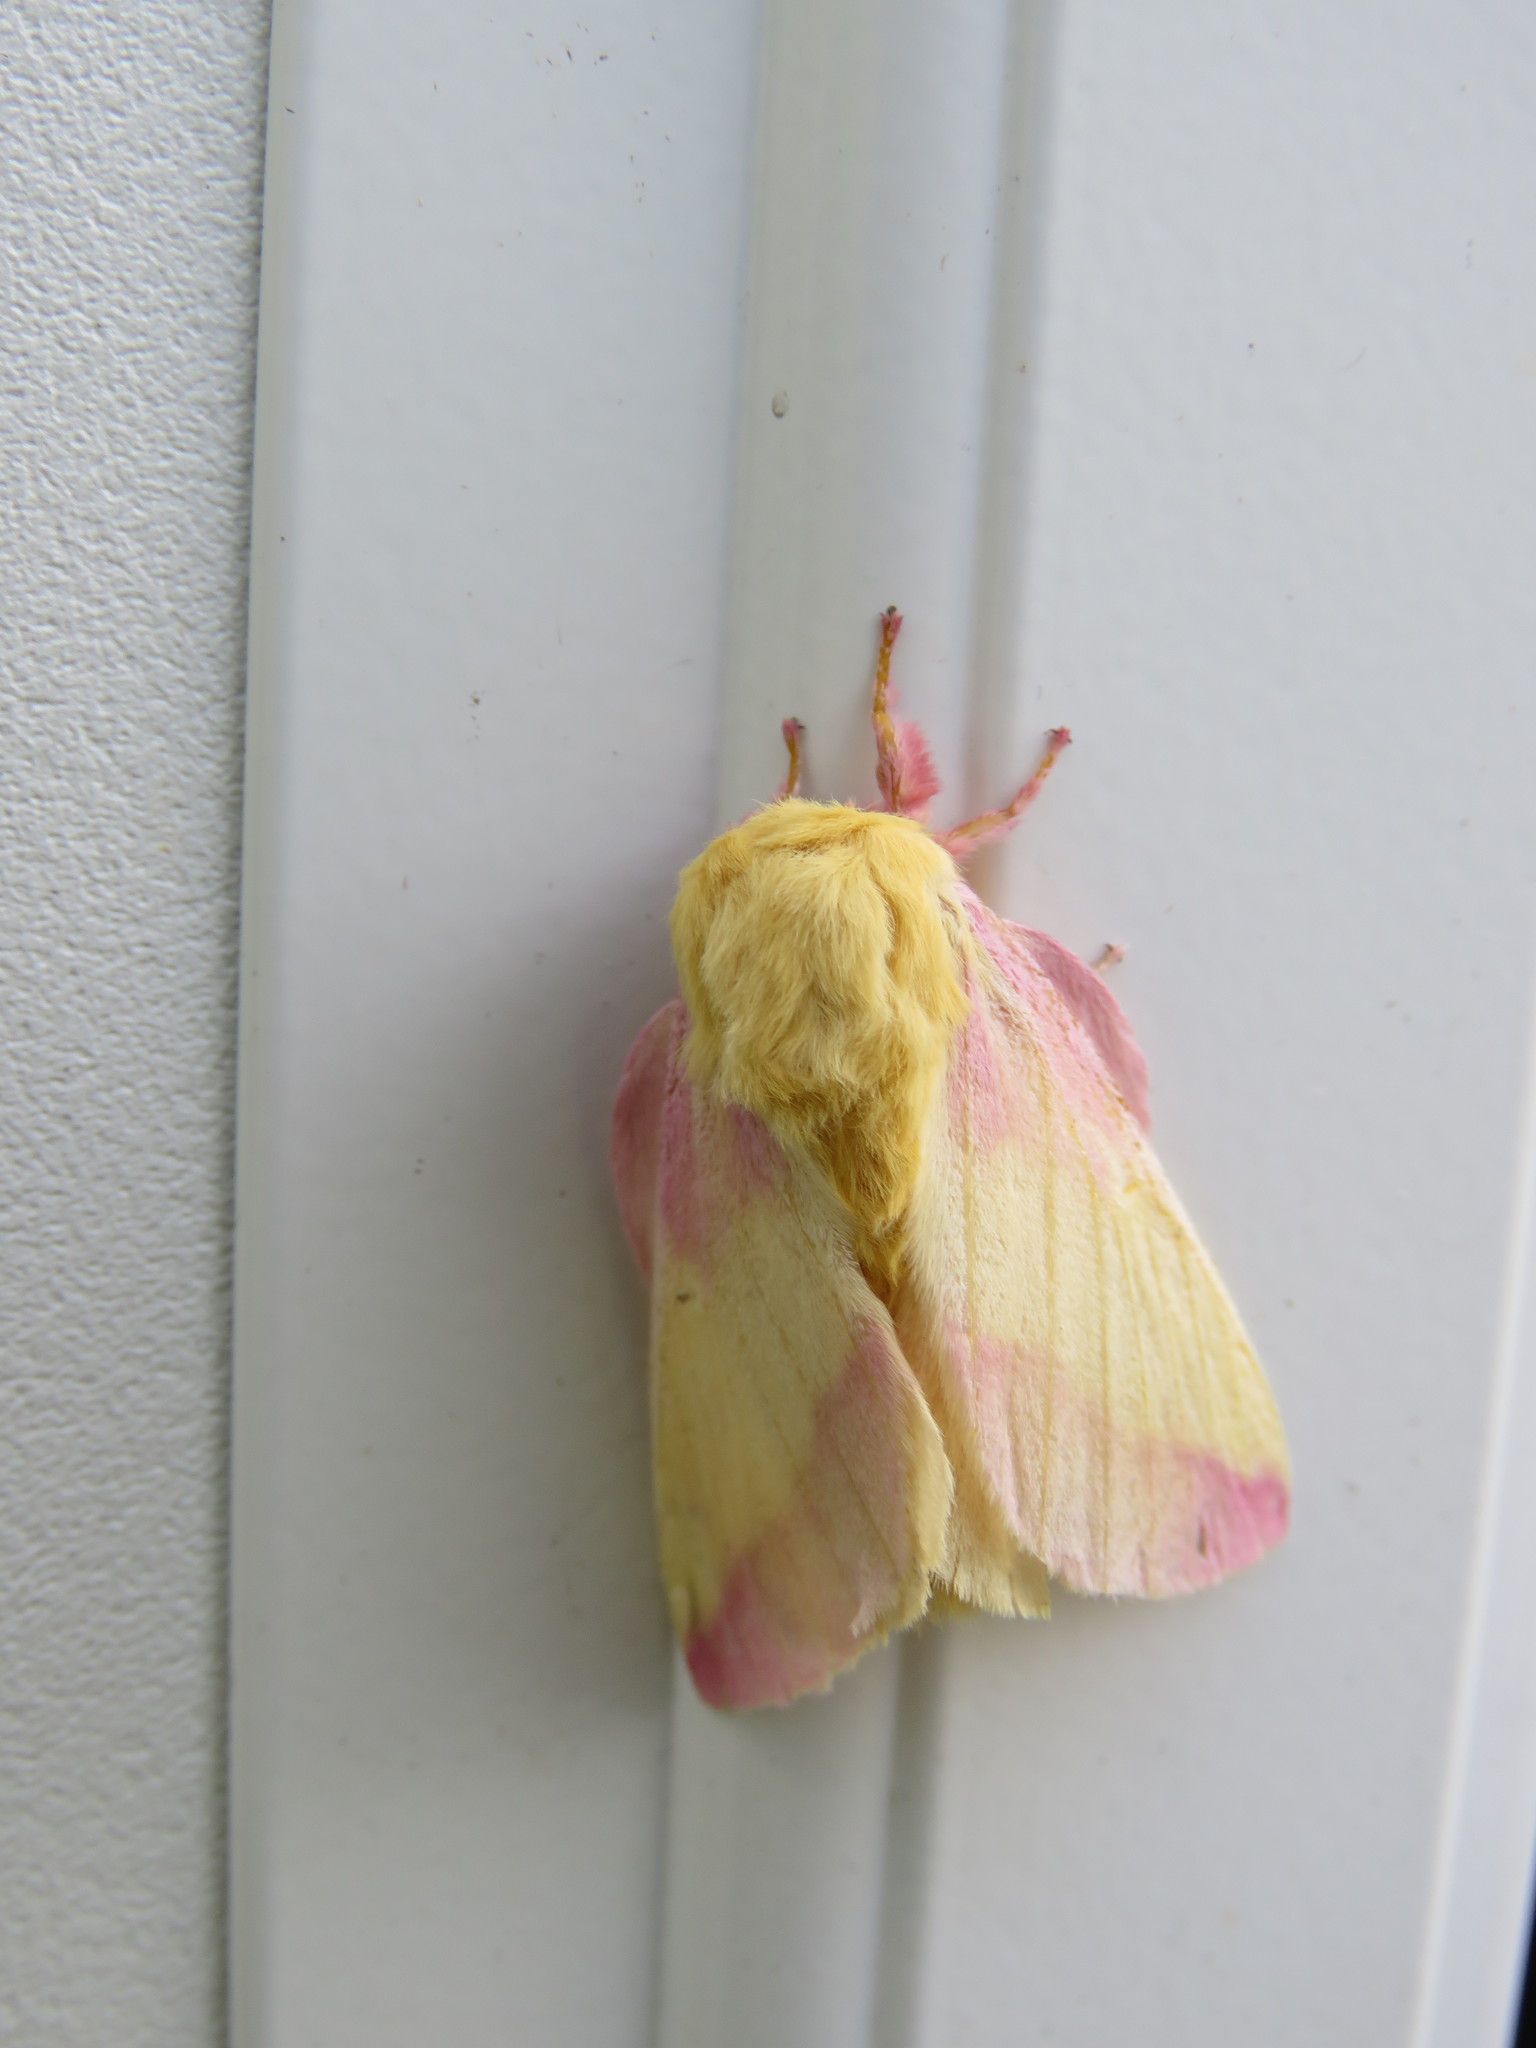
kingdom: Animalia
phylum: Arthropoda
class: Insecta
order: Lepidoptera
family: Saturniidae
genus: Dryocampa
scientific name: Dryocampa rubicunda
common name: Rosy maple moth
